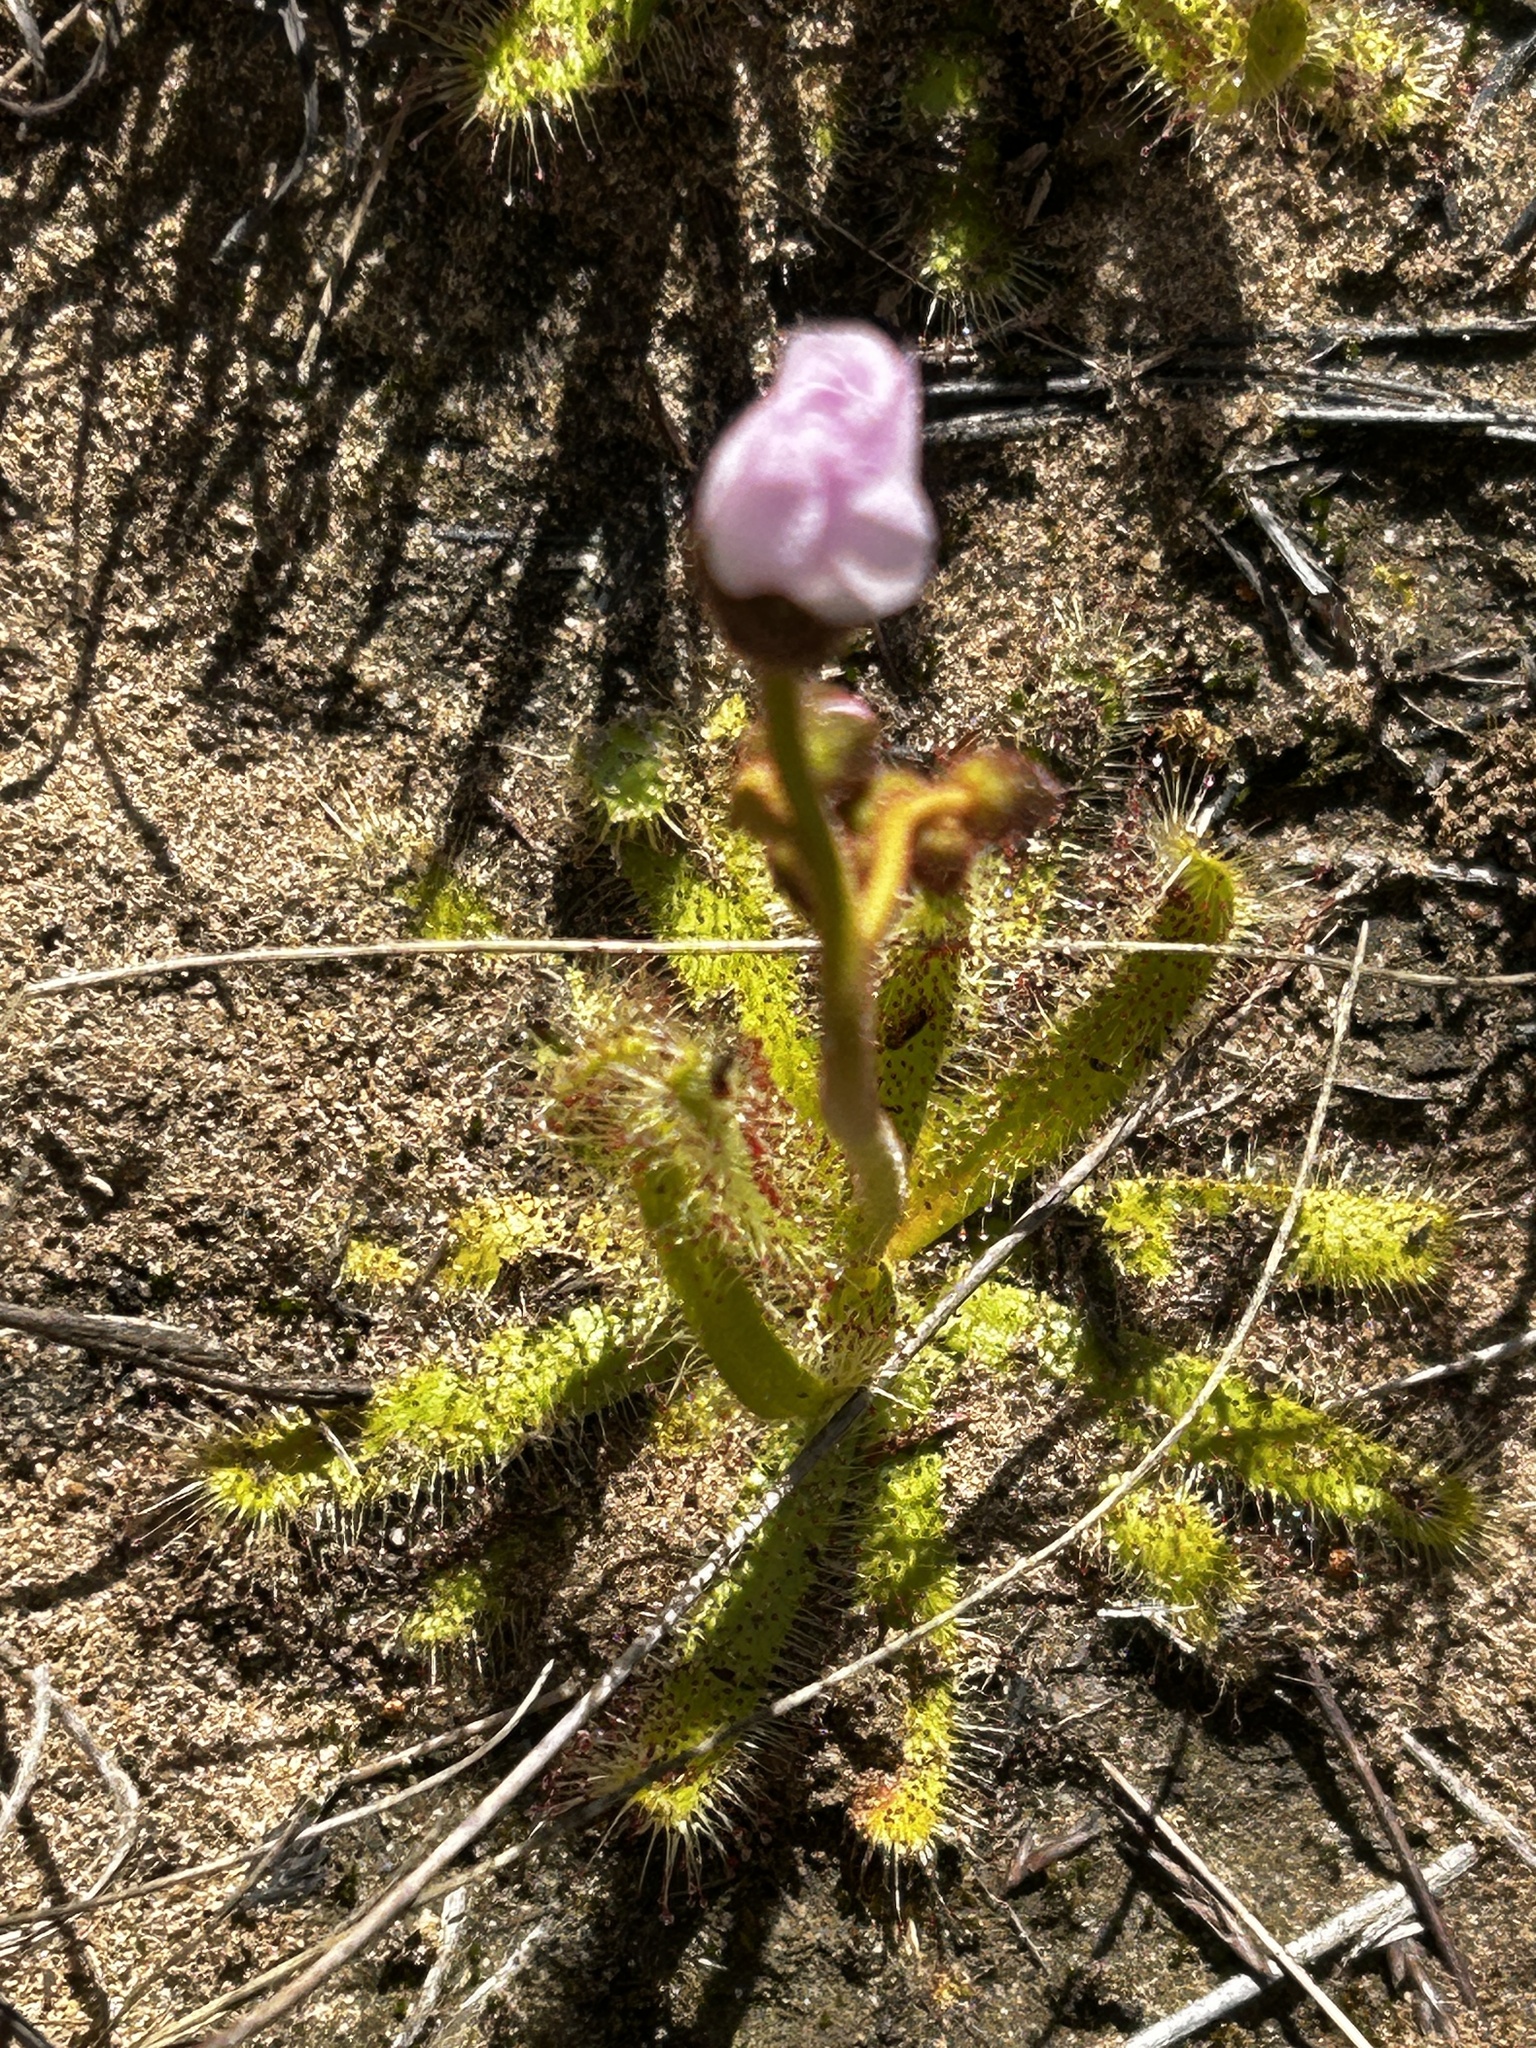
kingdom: Plantae
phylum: Tracheophyta
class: Magnoliopsida
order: Caryophyllales
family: Droseraceae
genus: Drosera
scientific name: Drosera cistiflora
